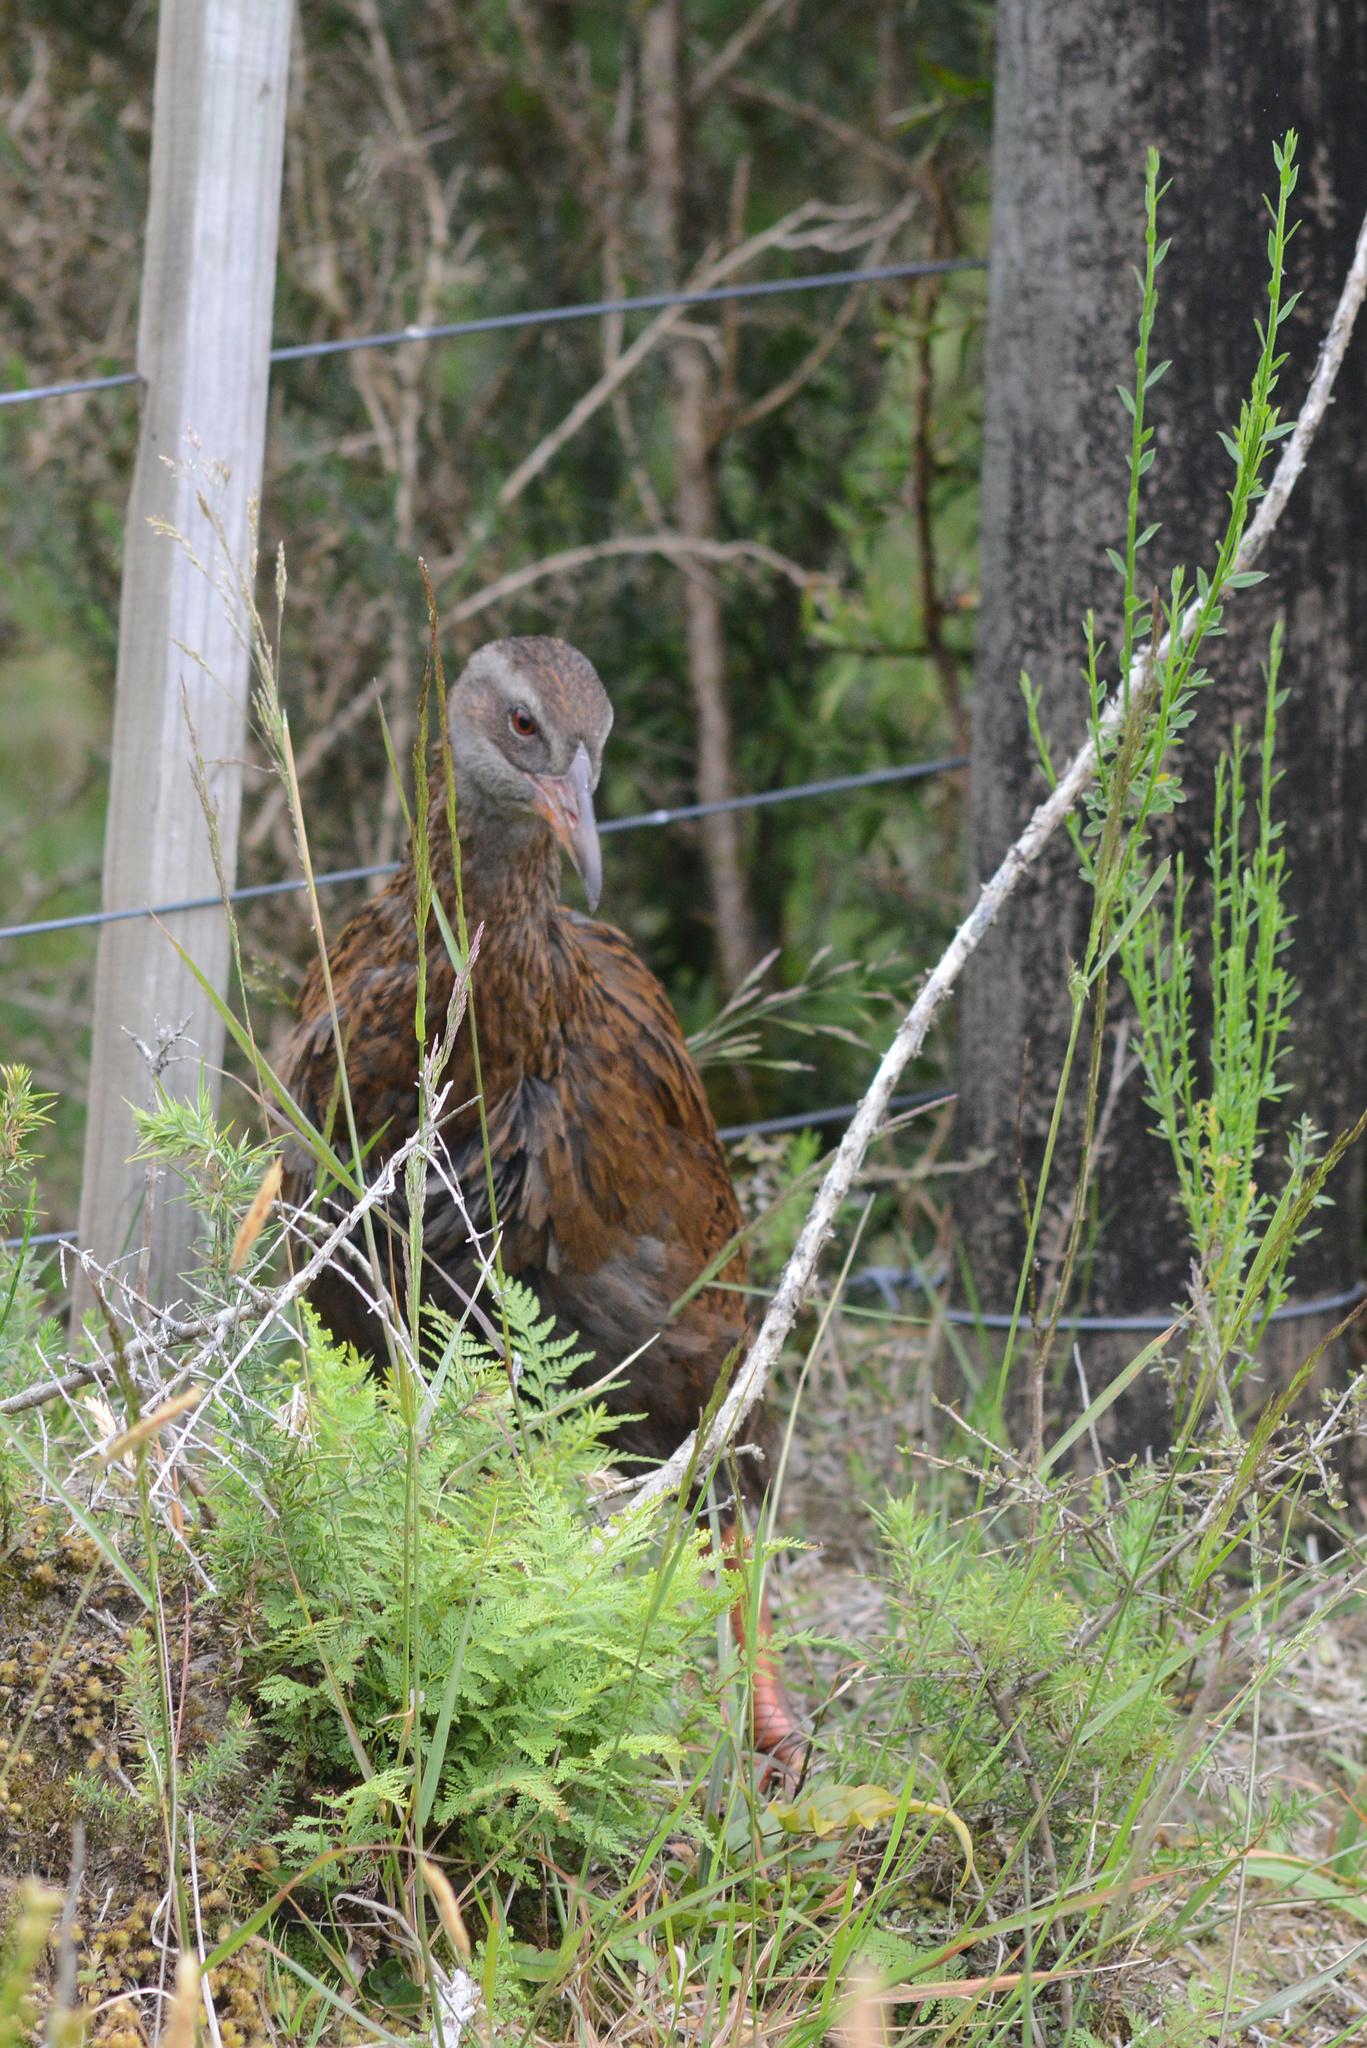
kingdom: Animalia
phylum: Chordata
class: Aves
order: Gruiformes
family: Rallidae
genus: Gallirallus
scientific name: Gallirallus australis
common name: Weka
